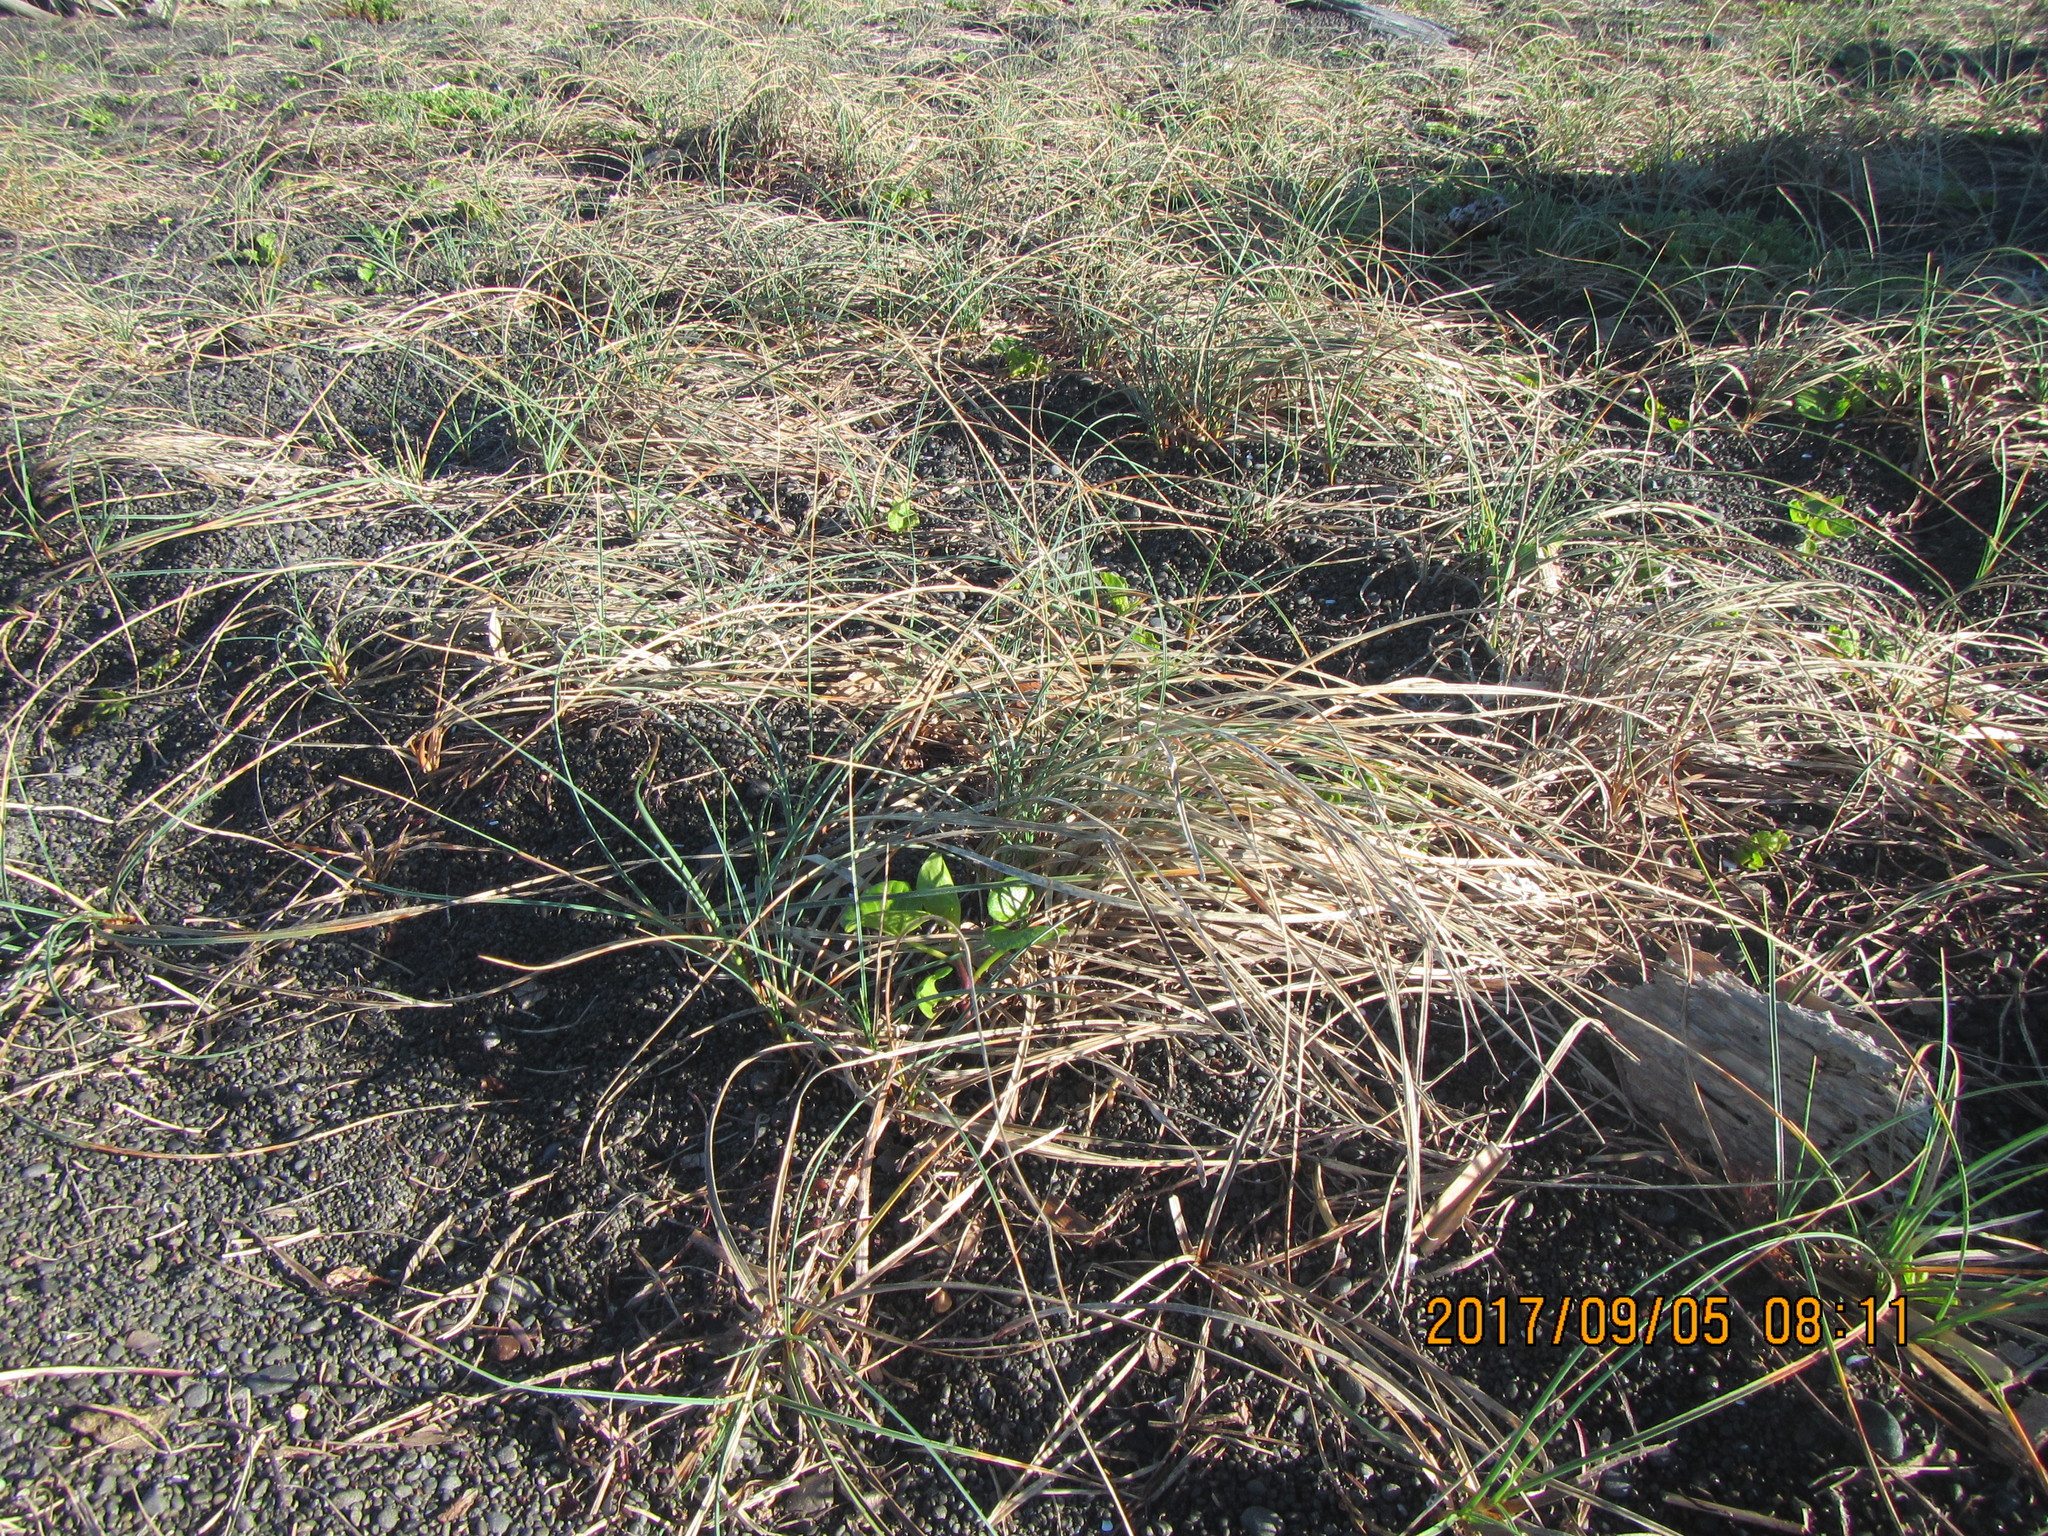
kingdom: Plantae
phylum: Tracheophyta
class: Liliopsida
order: Poales
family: Cyperaceae
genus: Carex
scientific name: Carex pumila
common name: Dwarf sedge
